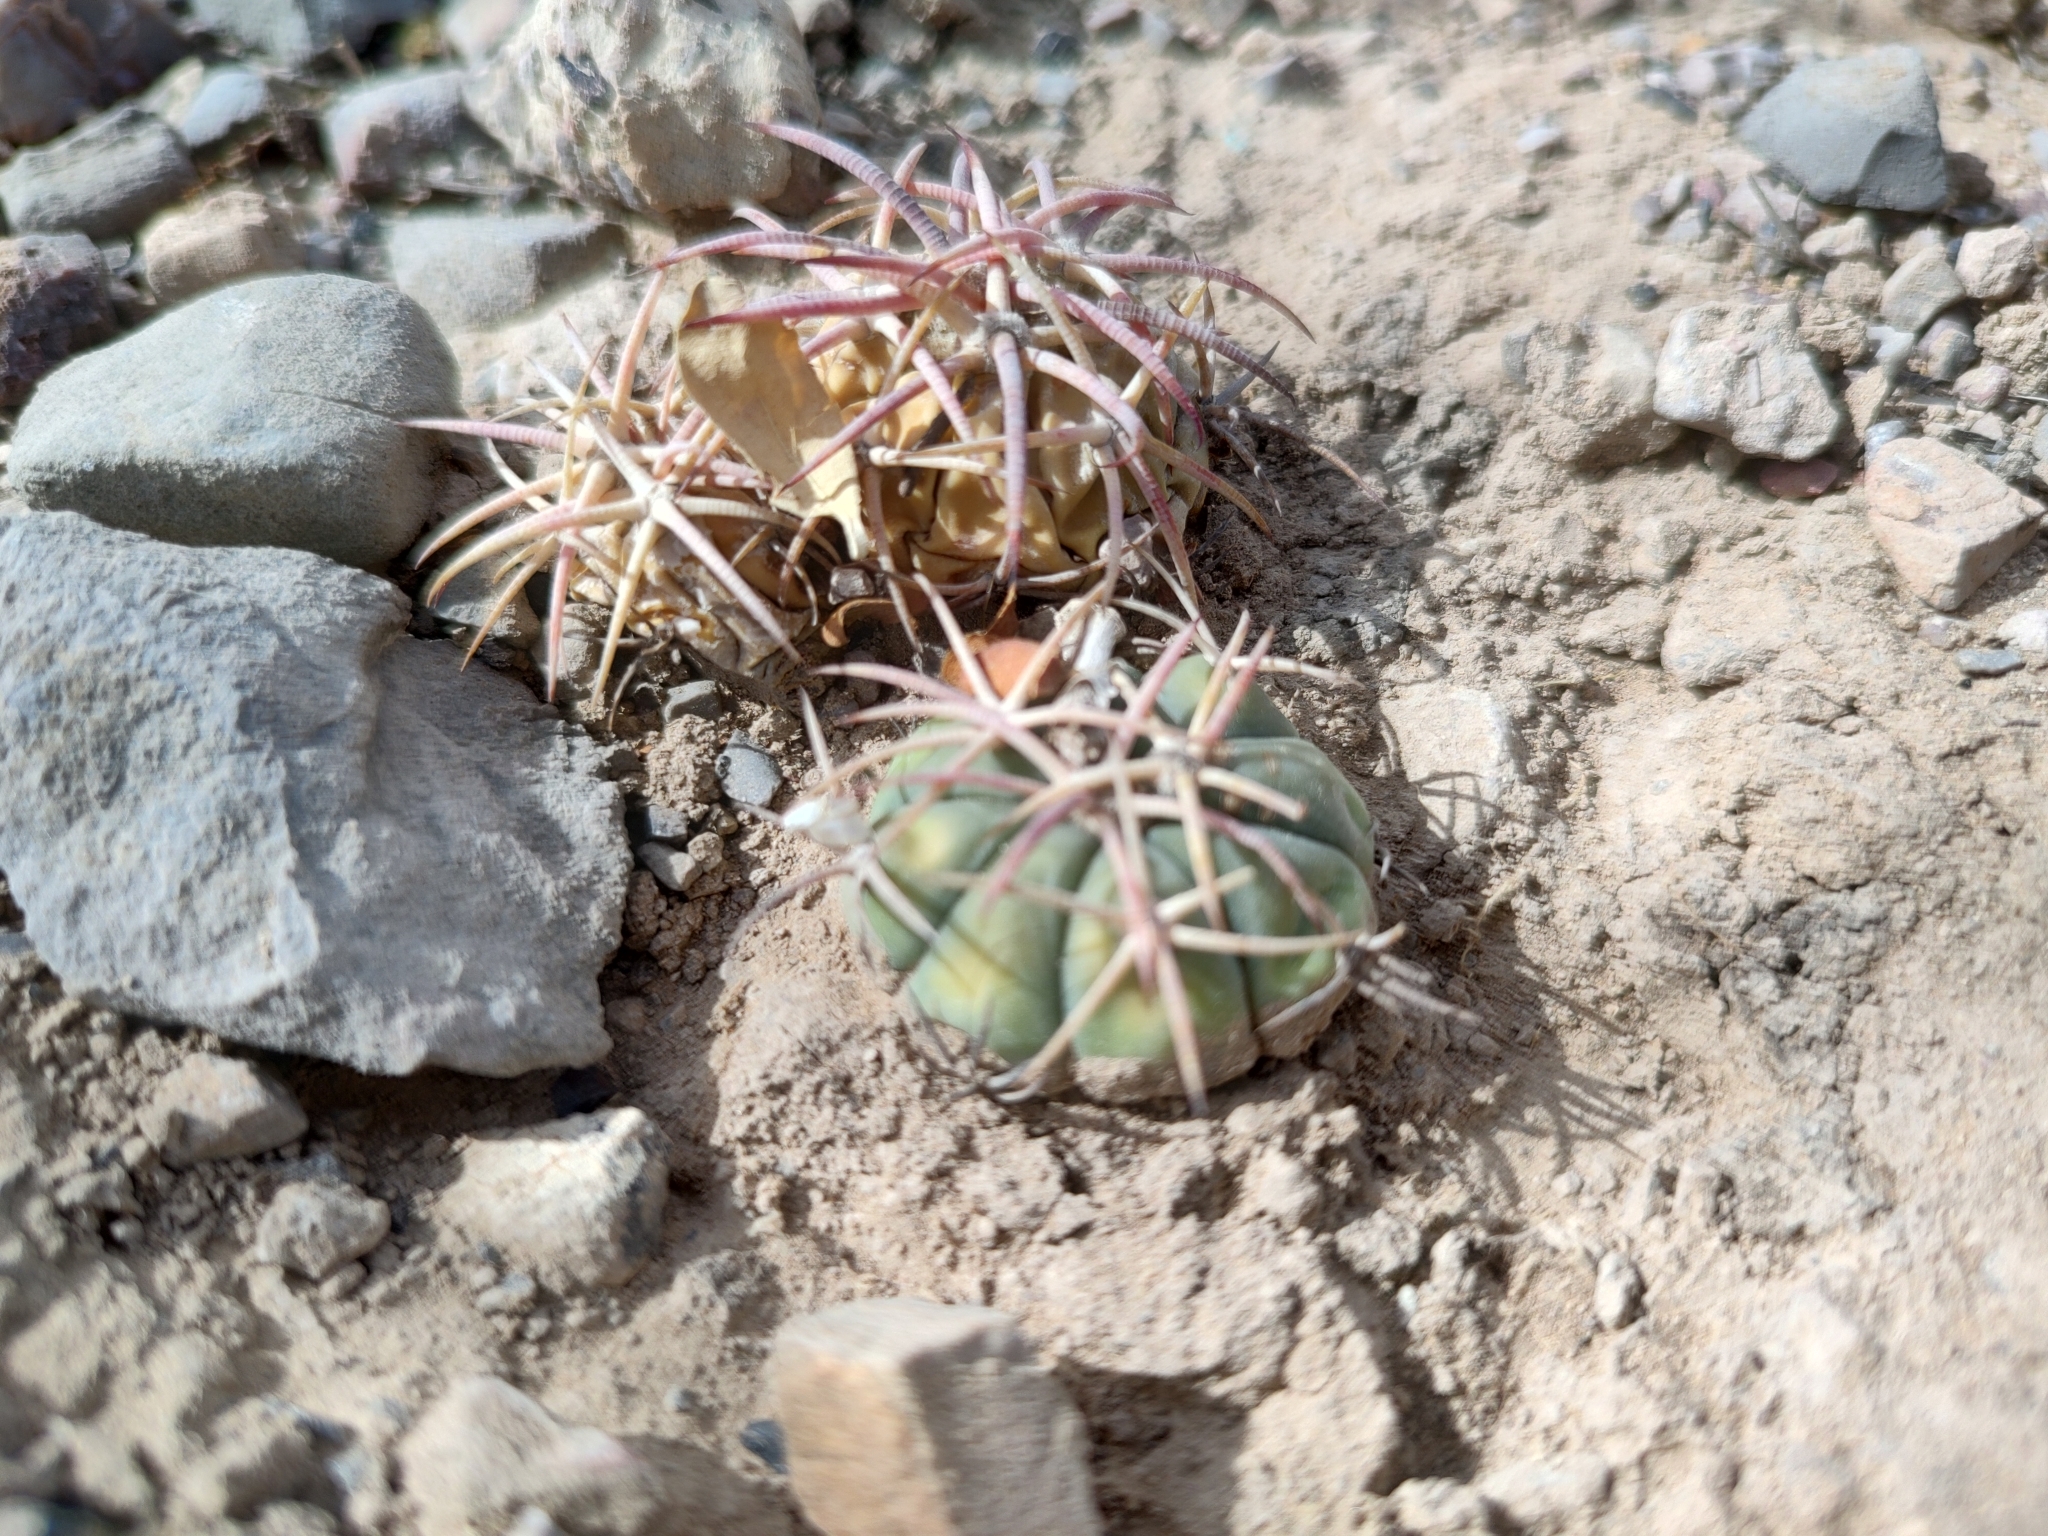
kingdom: Plantae
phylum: Tracheophyta
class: Magnoliopsida
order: Caryophyllales
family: Cactaceae
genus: Echinocactus
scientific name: Echinocactus horizonthalonius
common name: Devilshead
